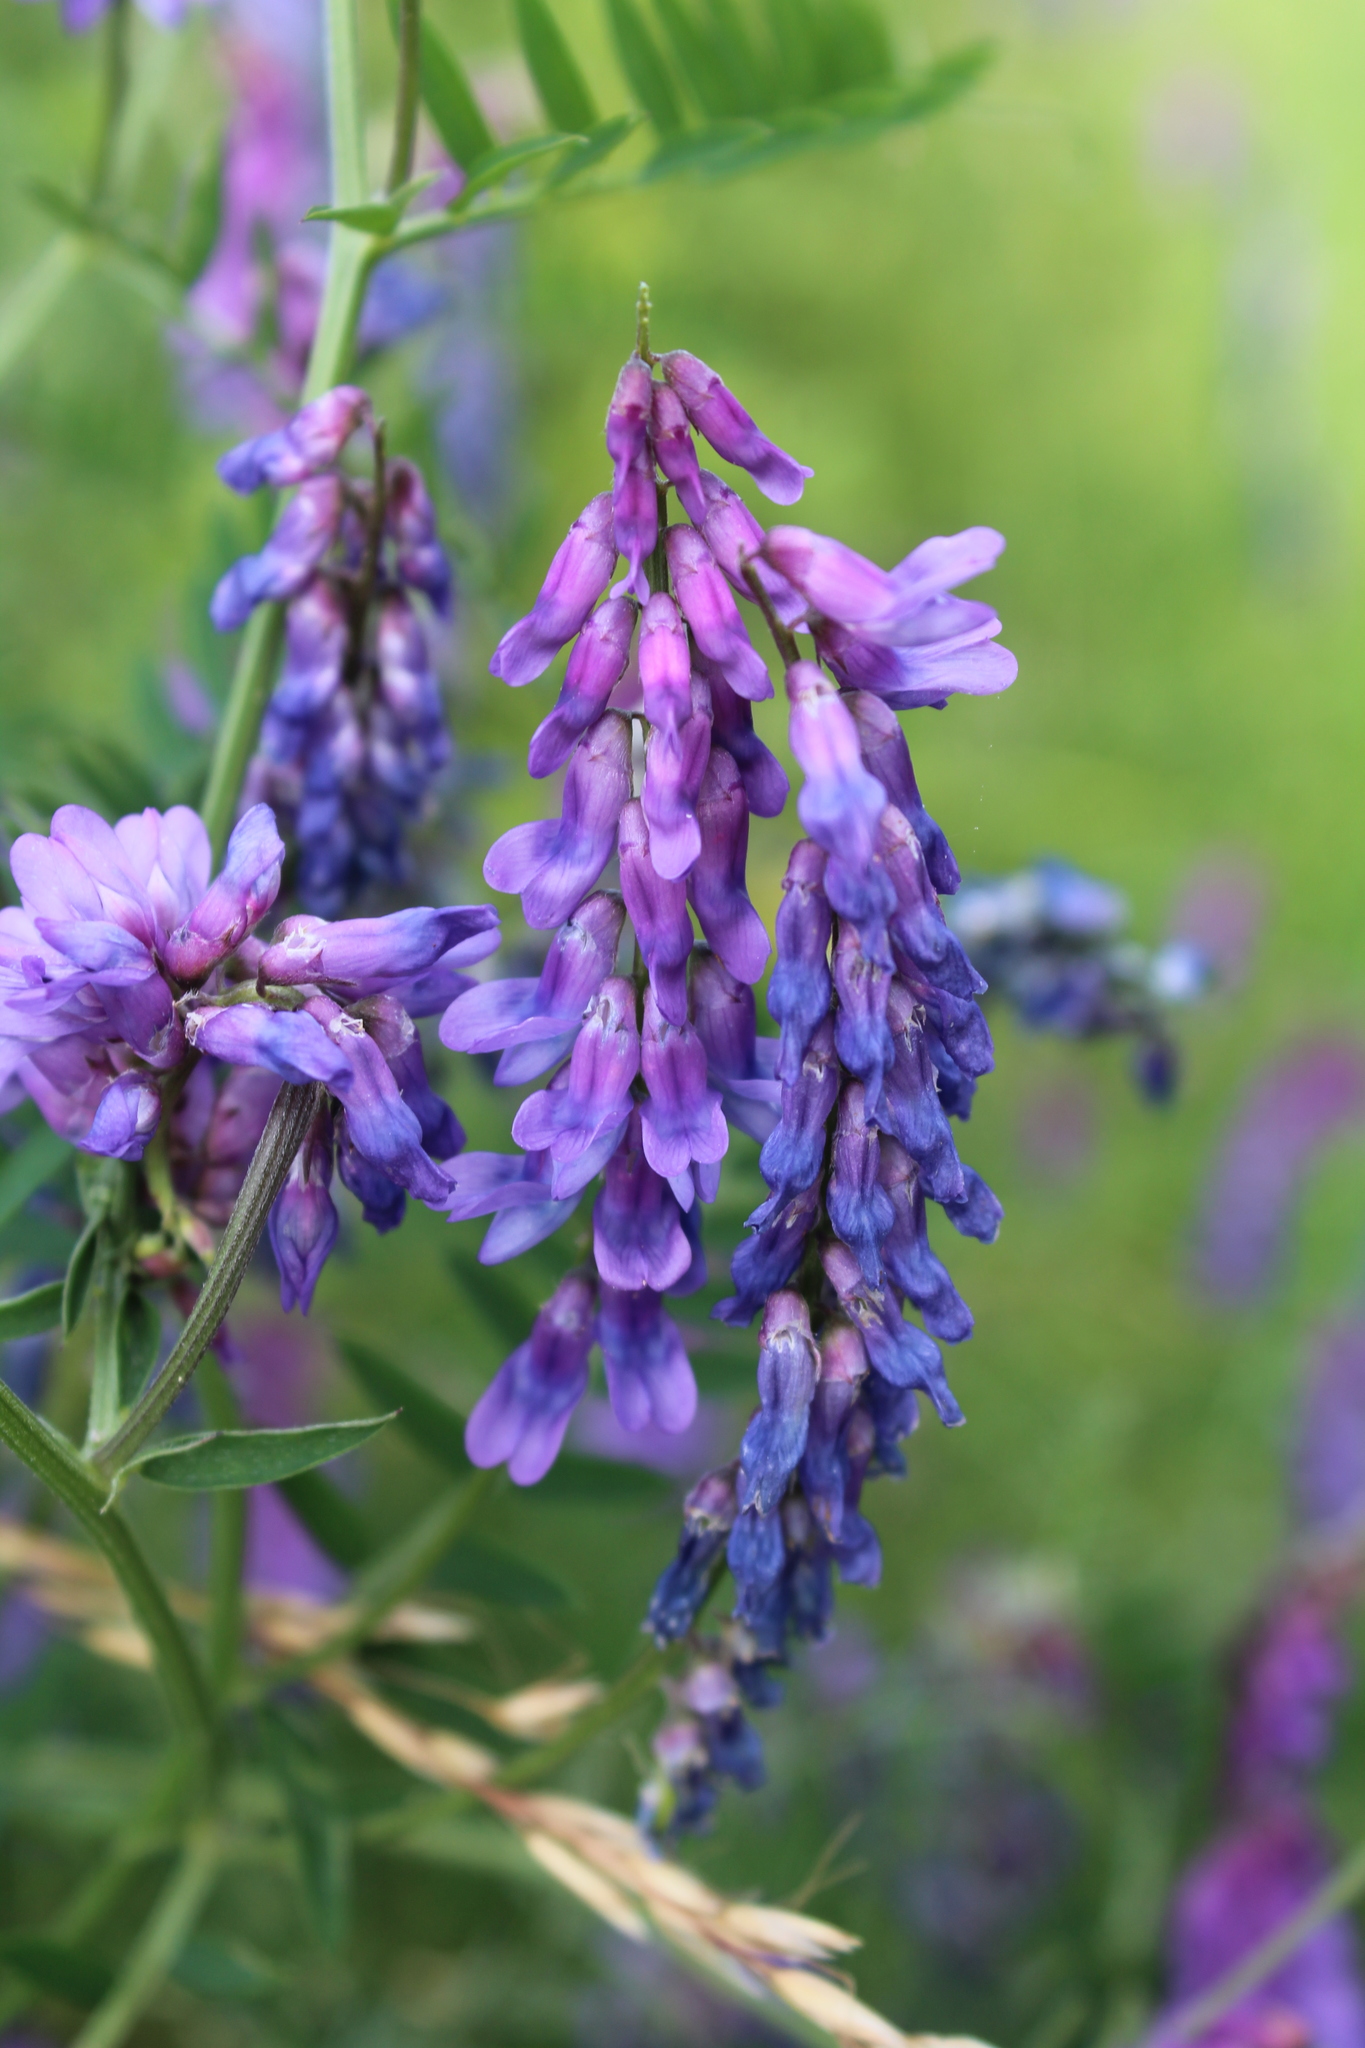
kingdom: Plantae
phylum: Tracheophyta
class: Magnoliopsida
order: Fabales
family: Fabaceae
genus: Vicia
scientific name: Vicia cracca
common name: Bird vetch
